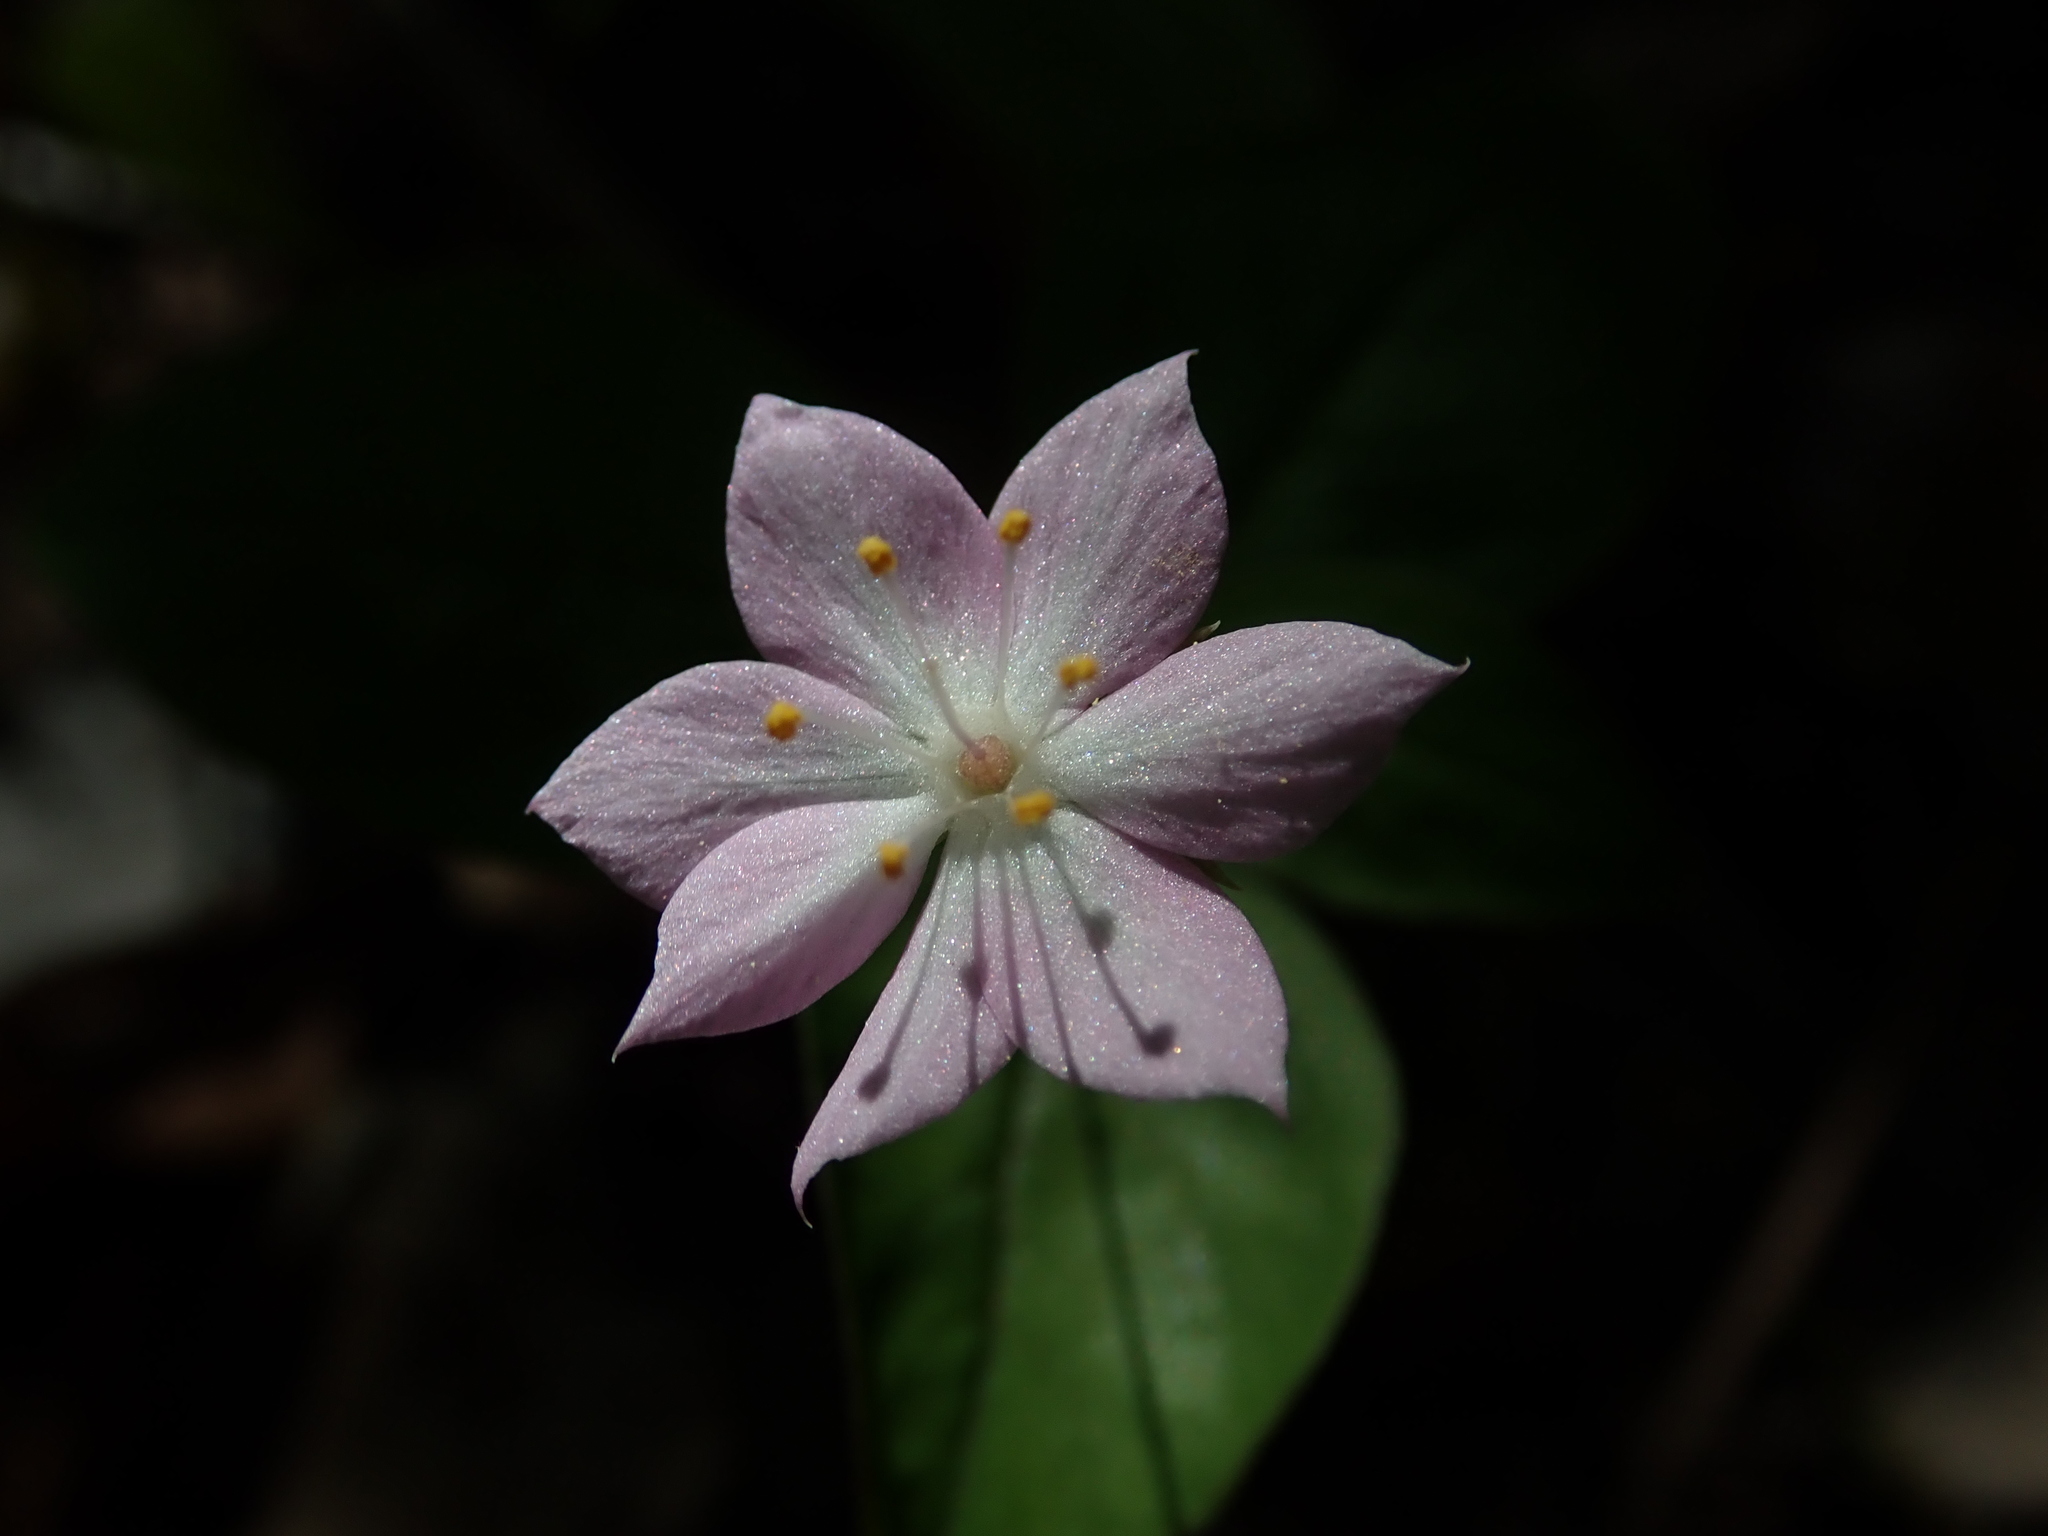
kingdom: Plantae
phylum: Tracheophyta
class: Magnoliopsida
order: Ericales
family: Primulaceae
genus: Lysimachia
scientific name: Lysimachia latifolia
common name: Pacific starflower
